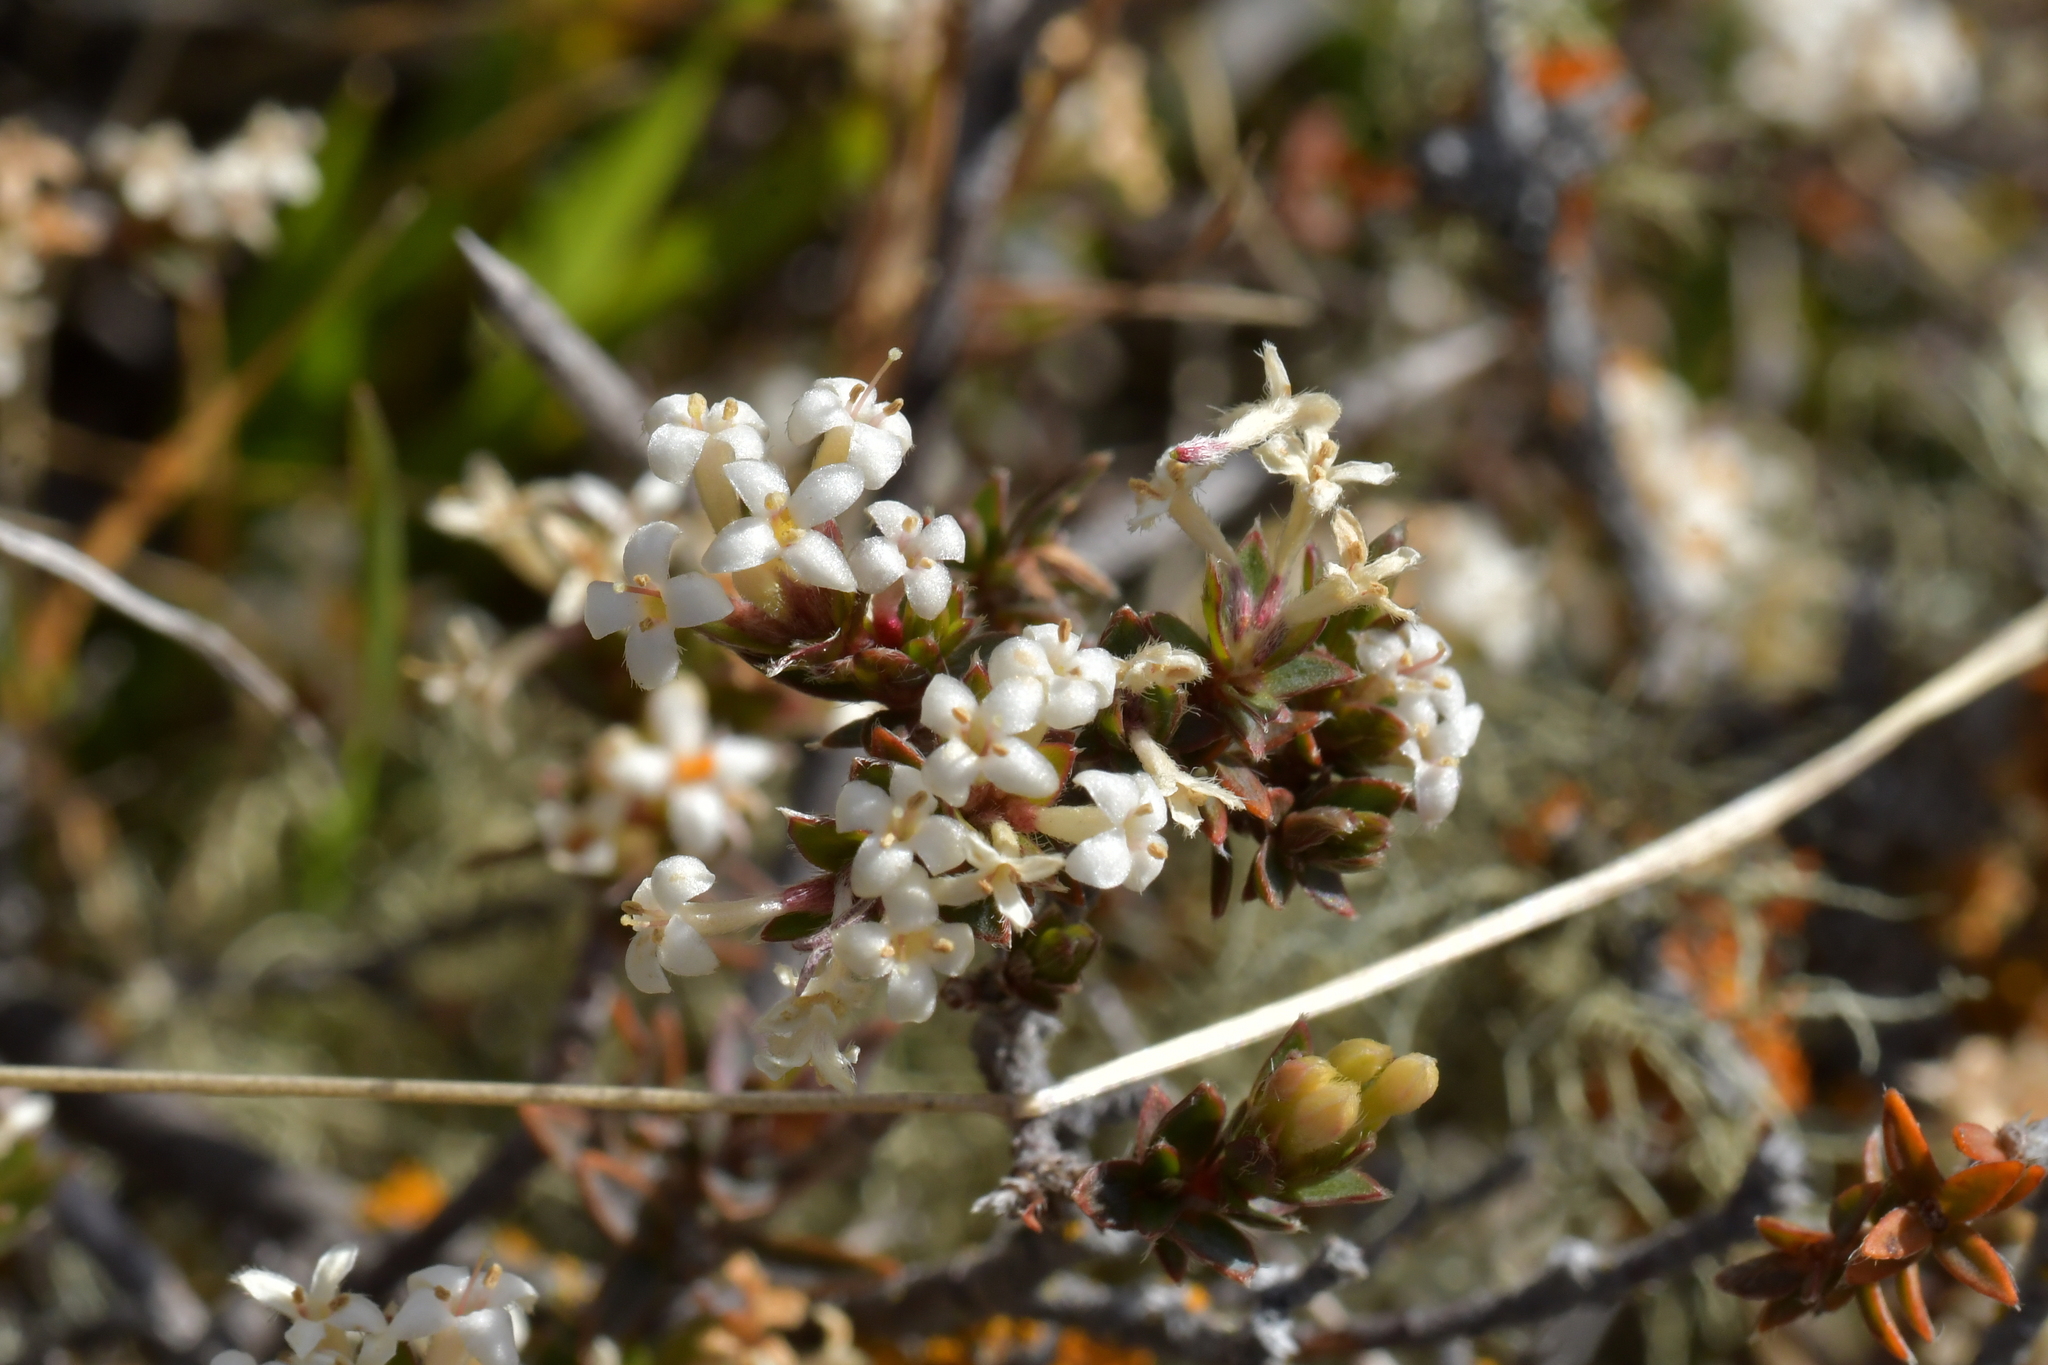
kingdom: Plantae
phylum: Tracheophyta
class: Magnoliopsida
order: Malvales
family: Thymelaeaceae
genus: Pimelea
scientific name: Pimelea oreophila
